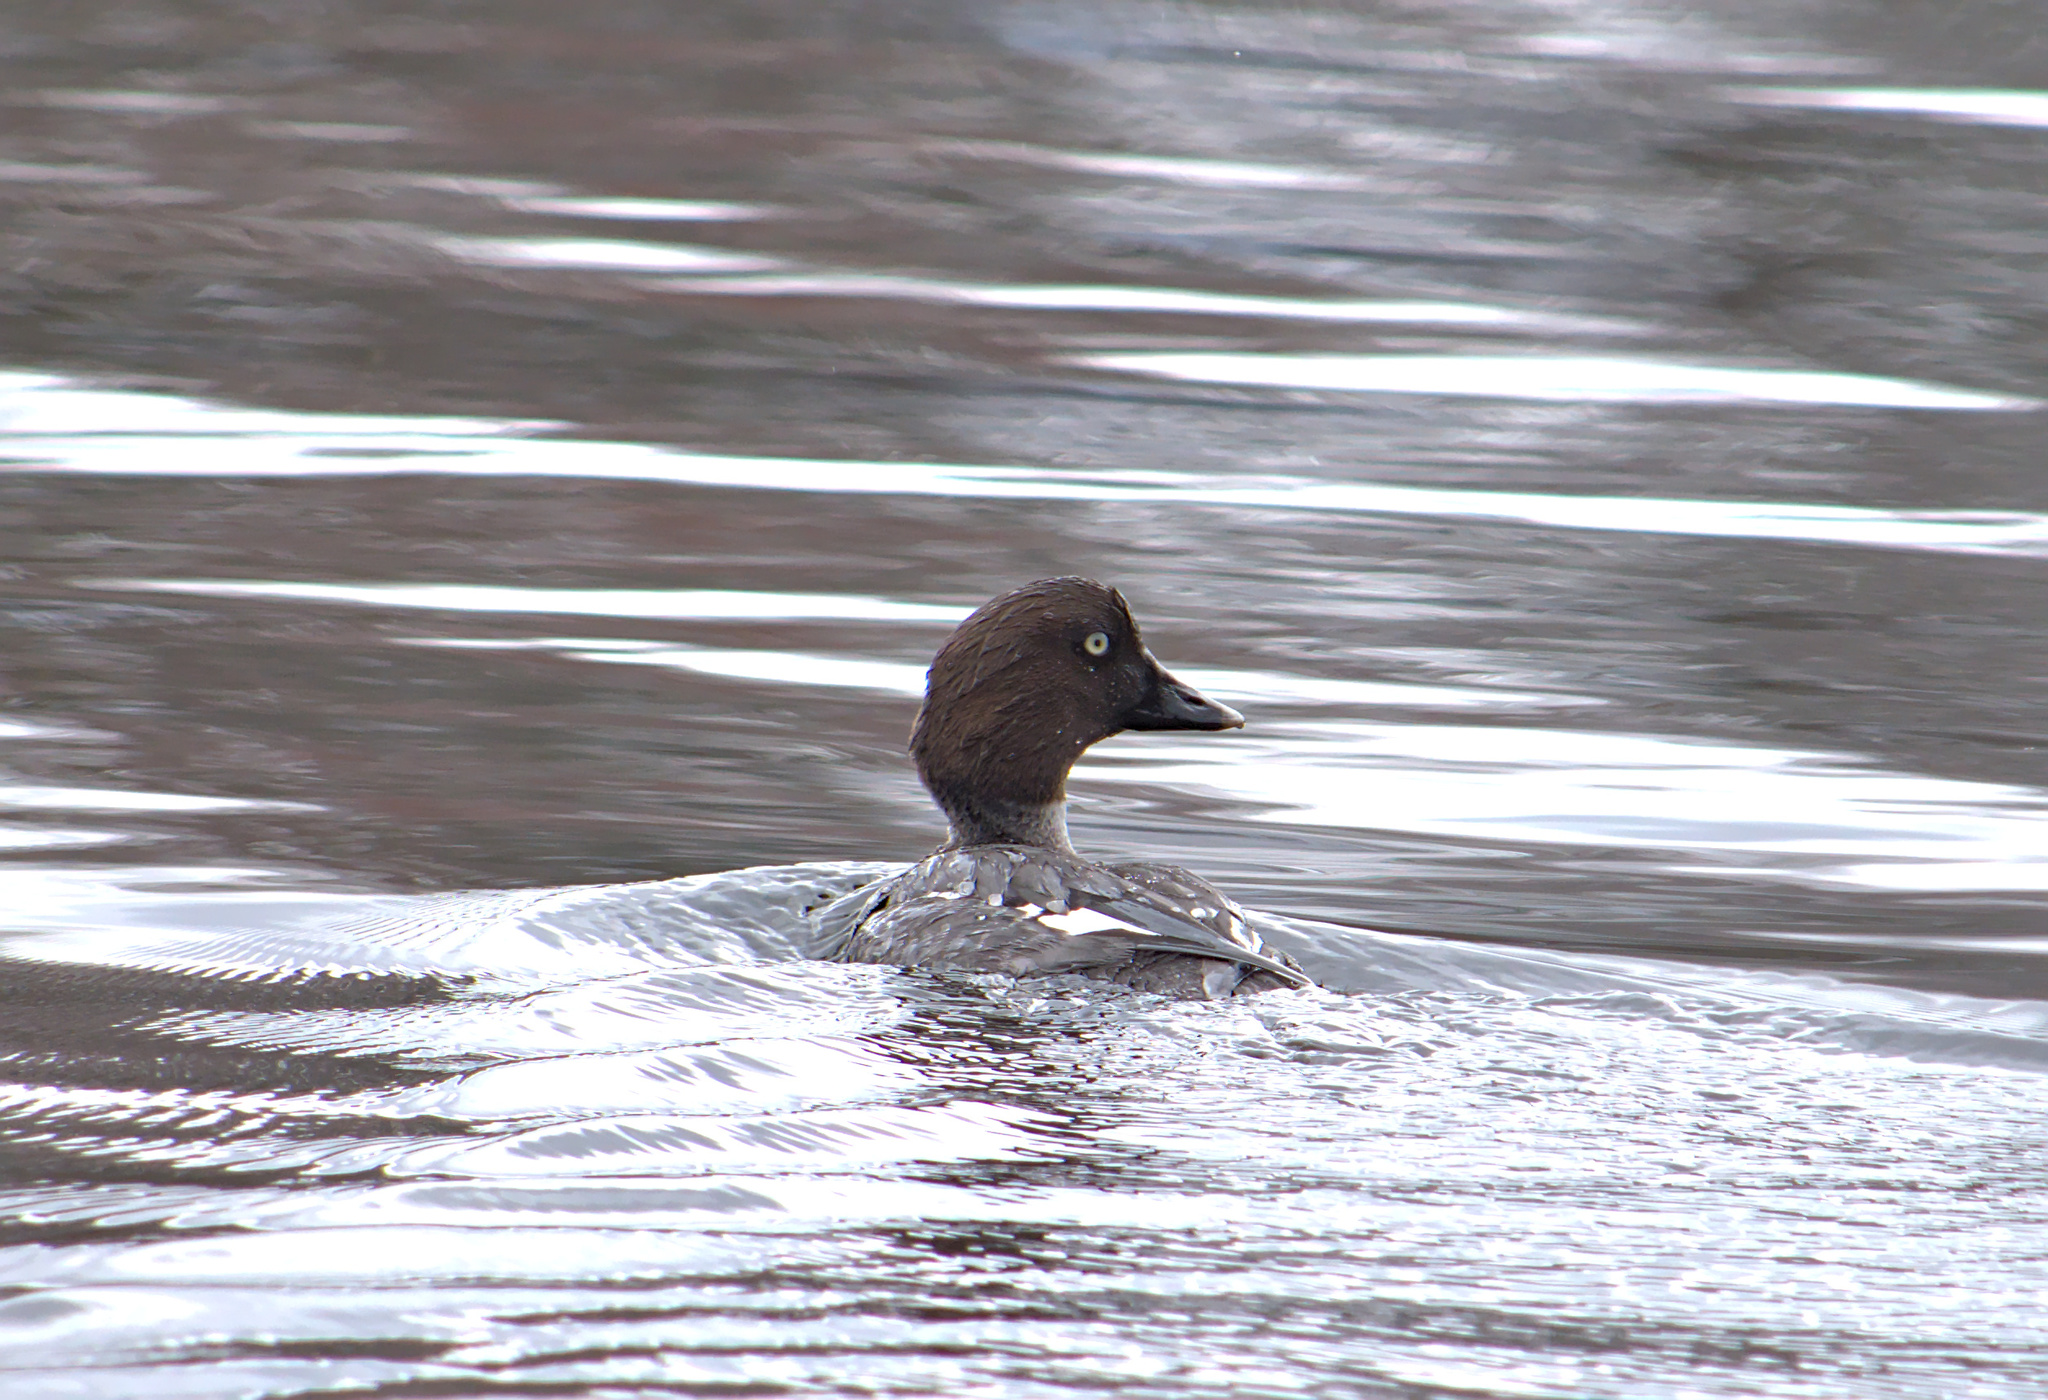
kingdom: Animalia
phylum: Chordata
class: Aves
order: Anseriformes
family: Anatidae
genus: Bucephala
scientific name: Bucephala clangula
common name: Common goldeneye
